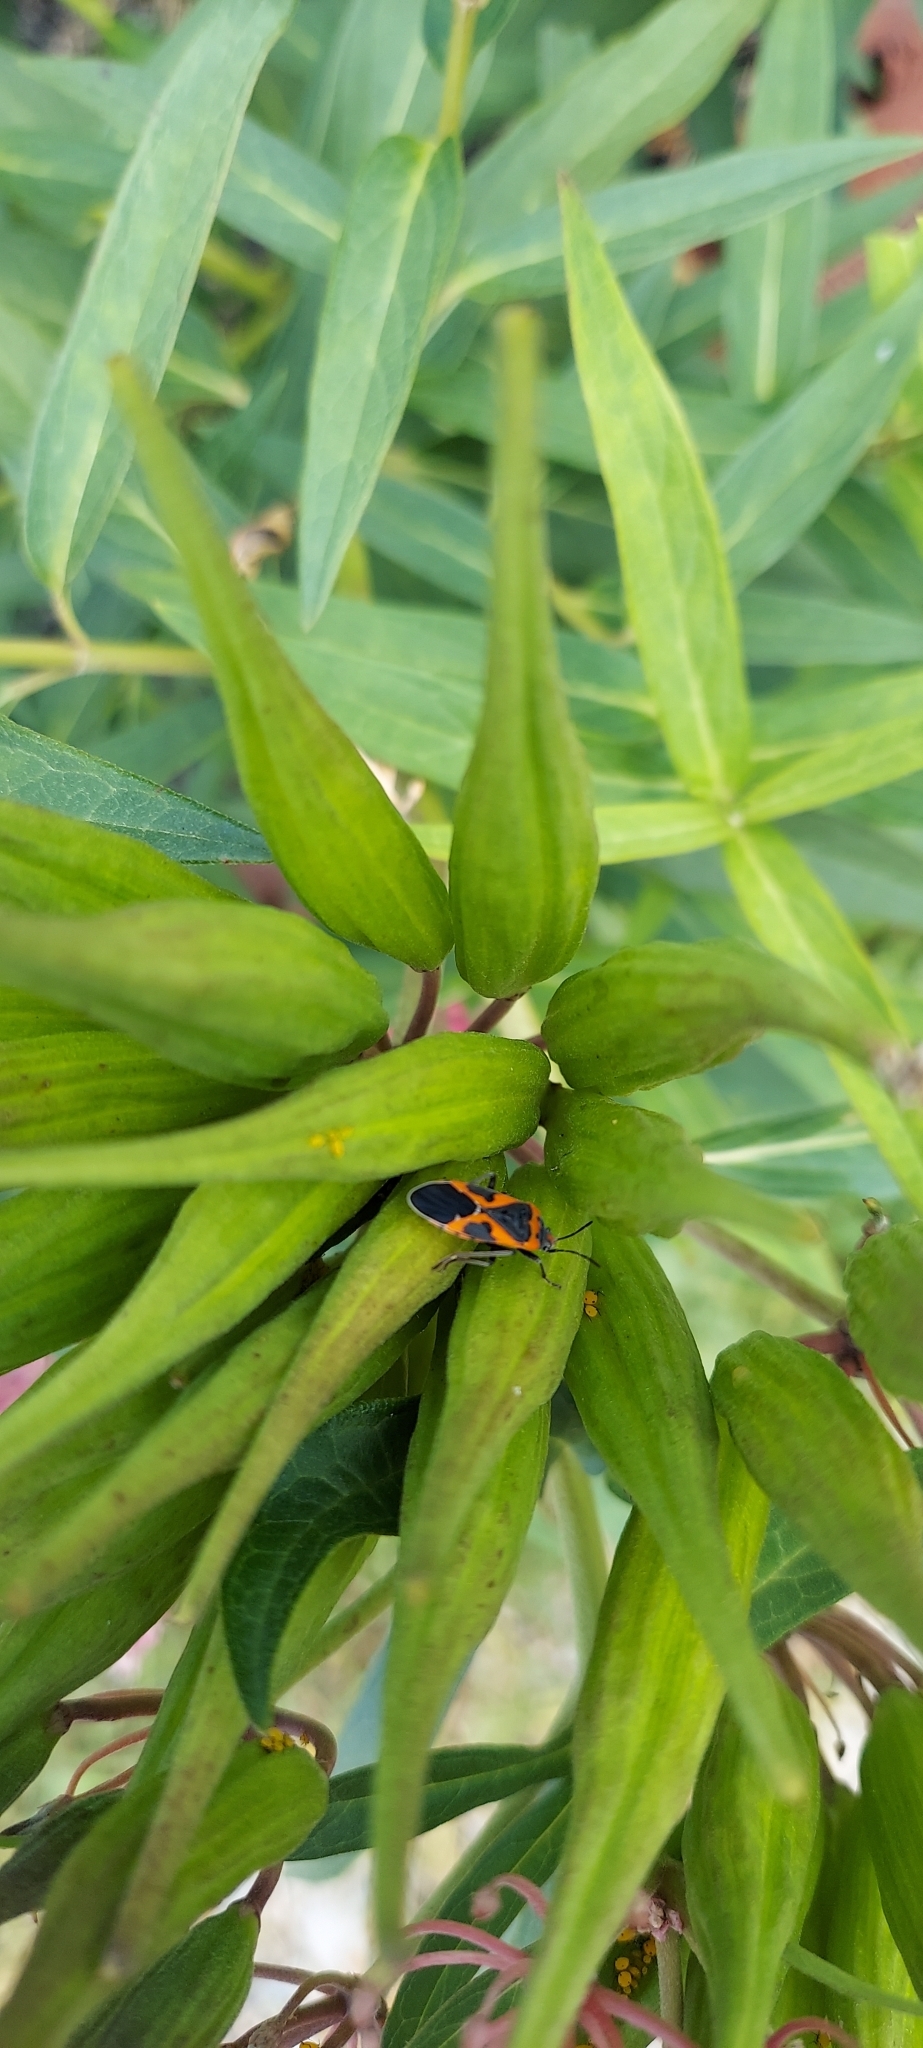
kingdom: Animalia
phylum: Arthropoda
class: Insecta
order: Hemiptera
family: Lygaeidae
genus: Lygaeus
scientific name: Lygaeus kalmii
